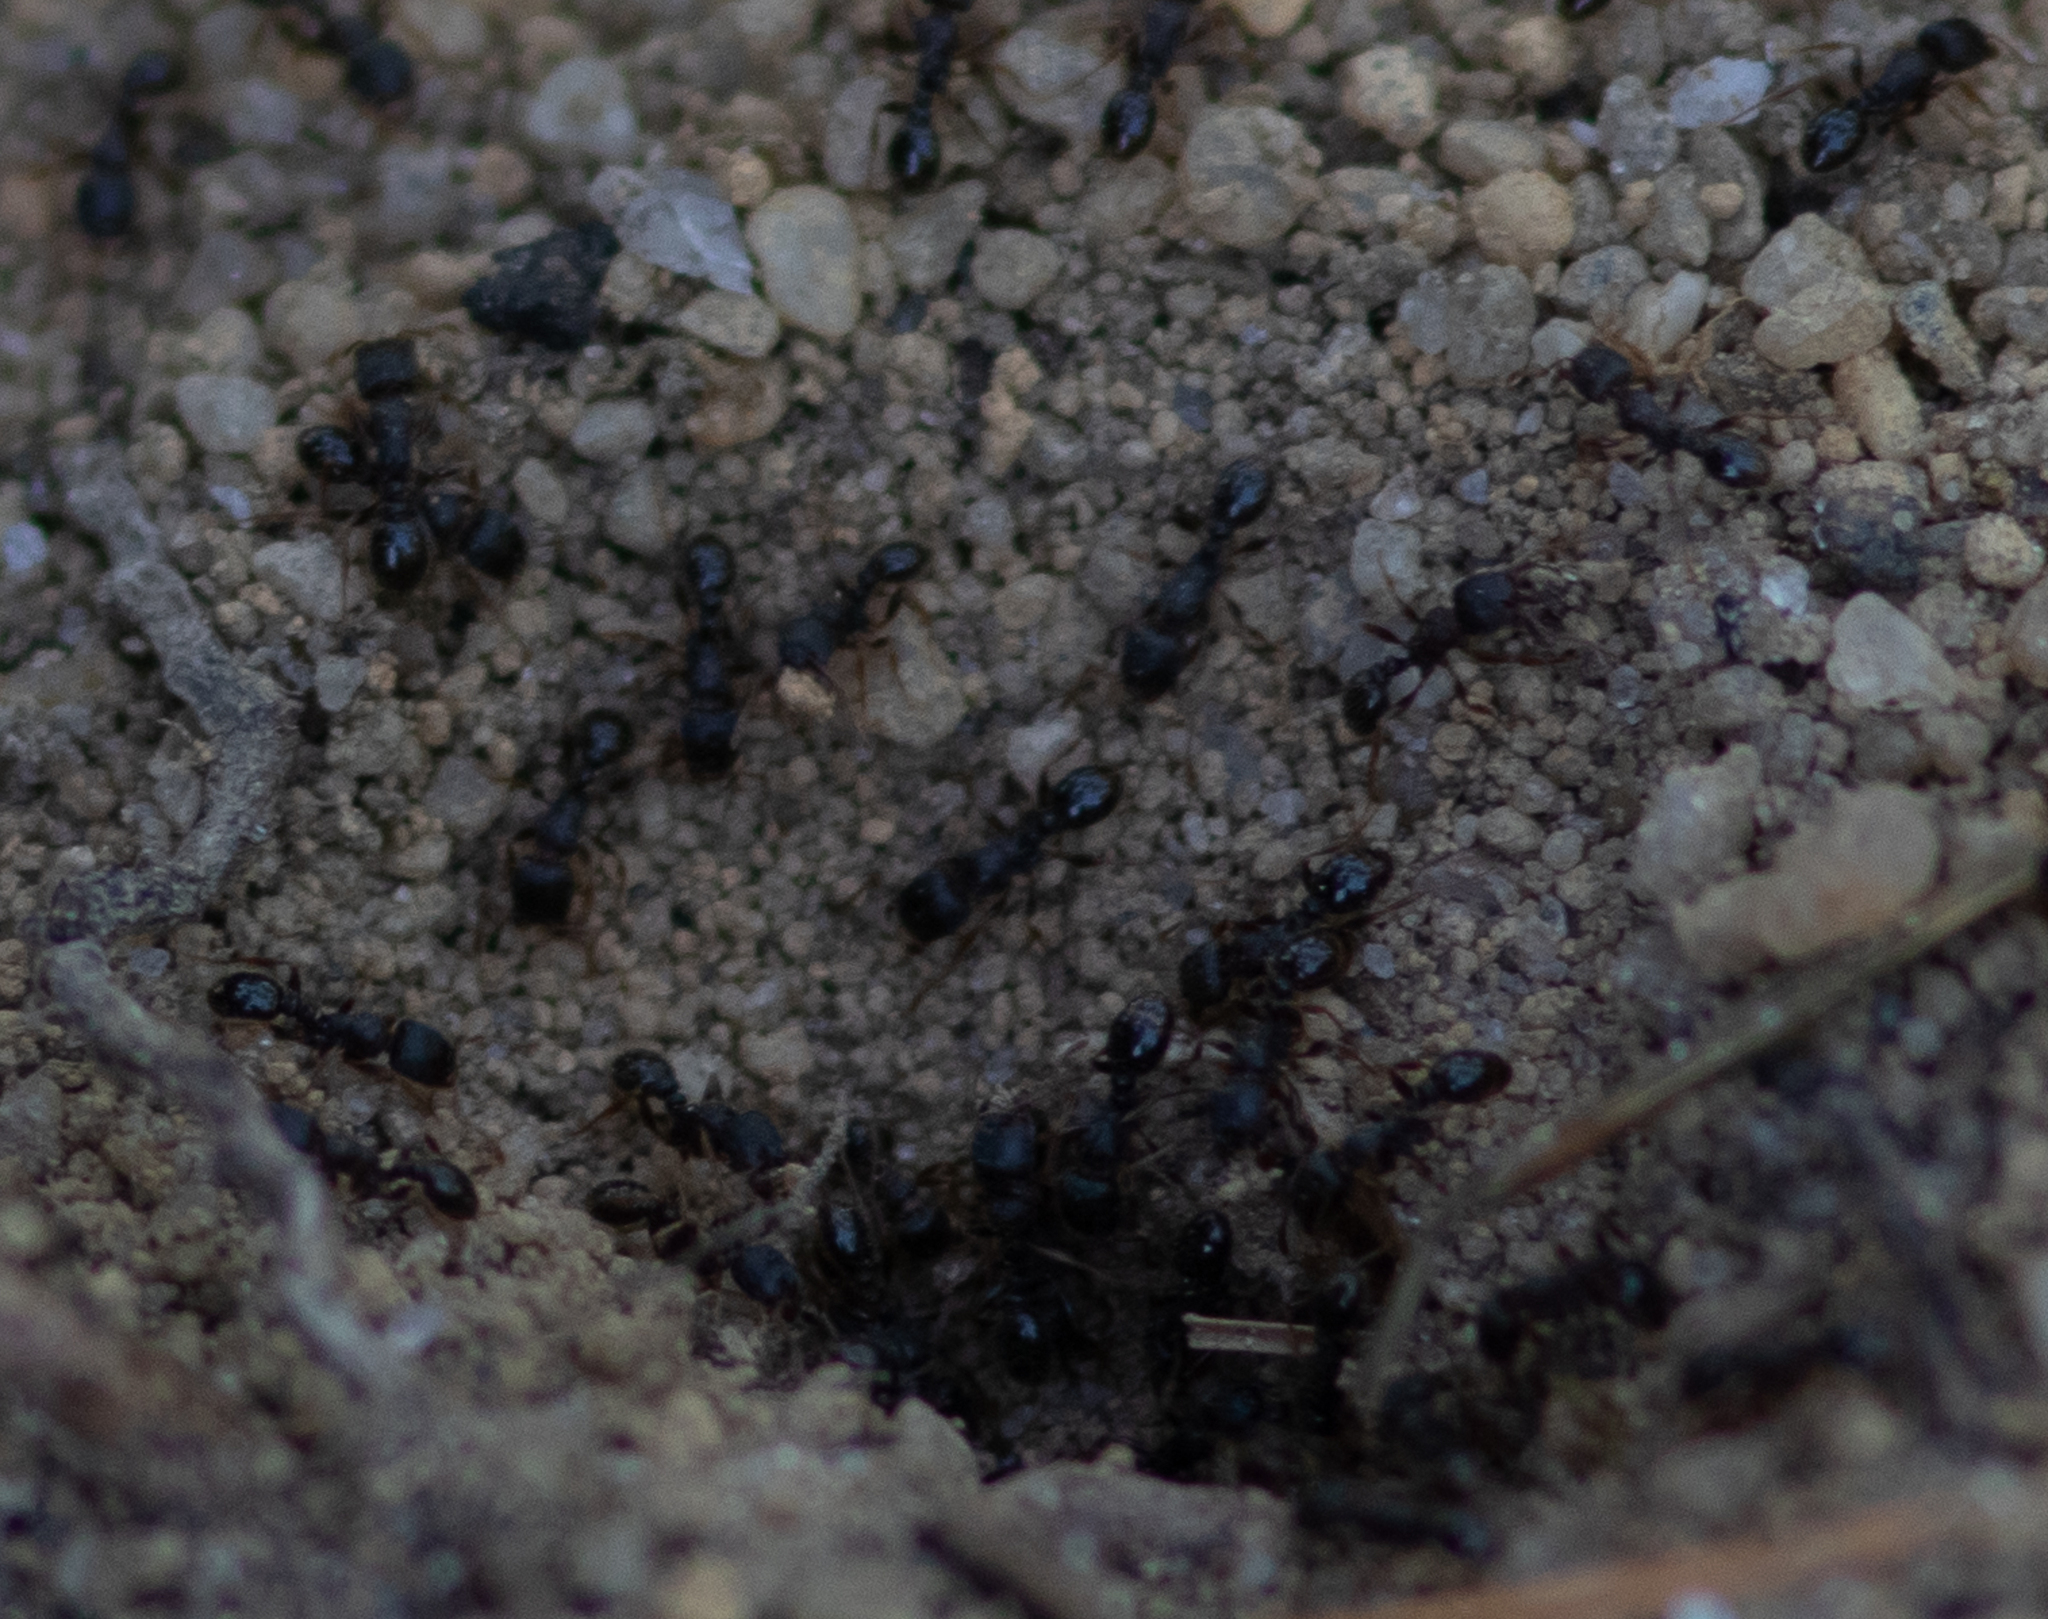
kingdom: Animalia
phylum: Arthropoda
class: Insecta
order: Hymenoptera
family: Formicidae
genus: Tetramorium
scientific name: Tetramorium immigrans
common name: Pavement ant
